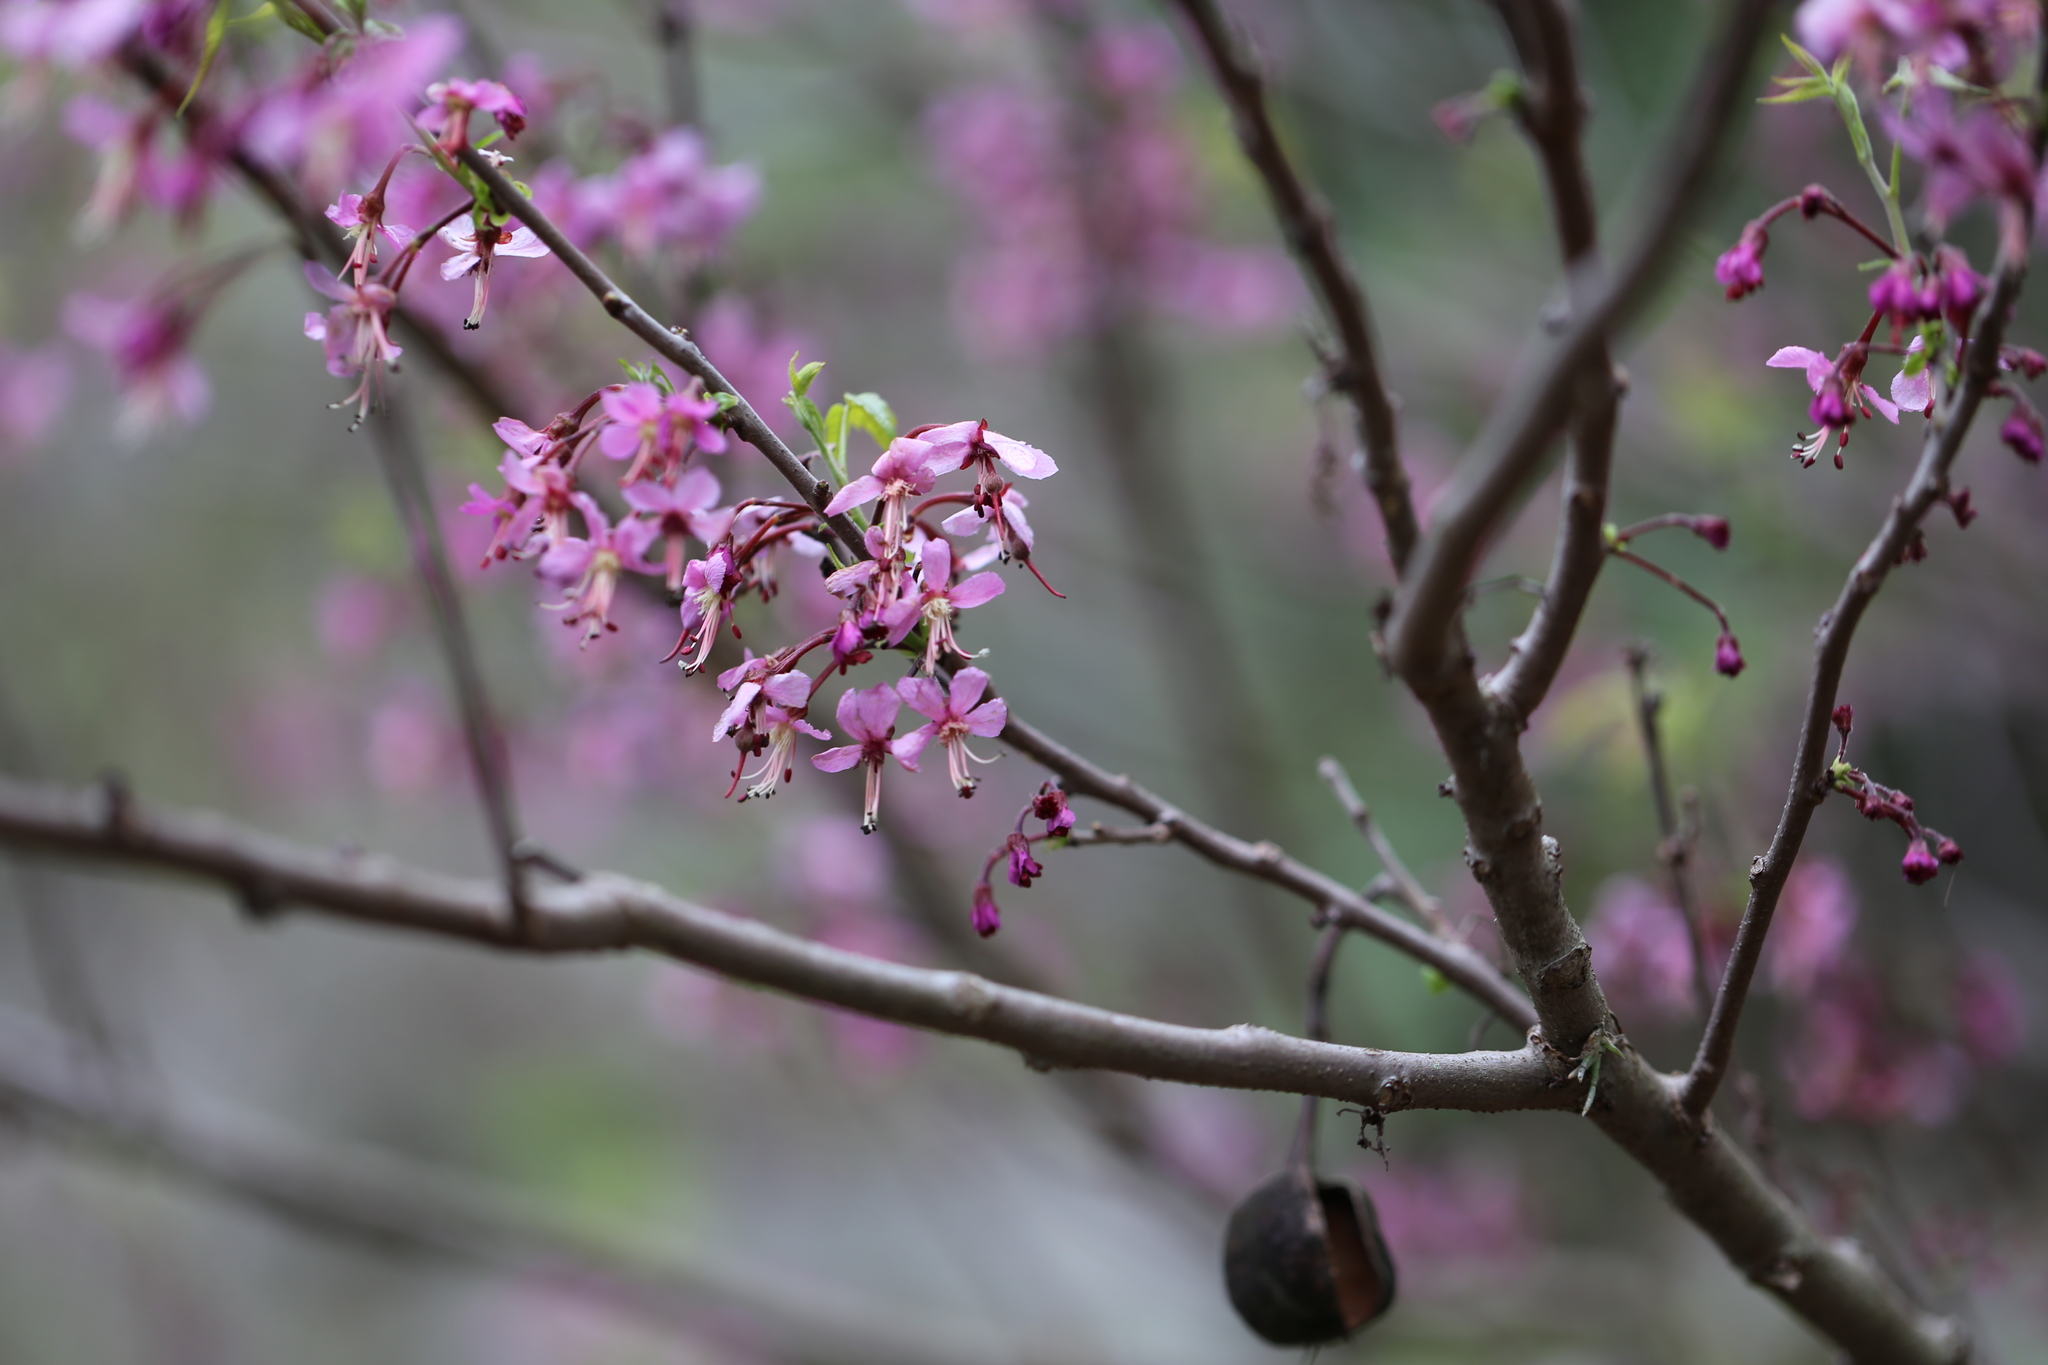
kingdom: Plantae
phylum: Tracheophyta
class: Magnoliopsida
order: Sapindales
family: Sapindaceae
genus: Ungnadia
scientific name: Ungnadia speciosa
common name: Texas-buckeye
